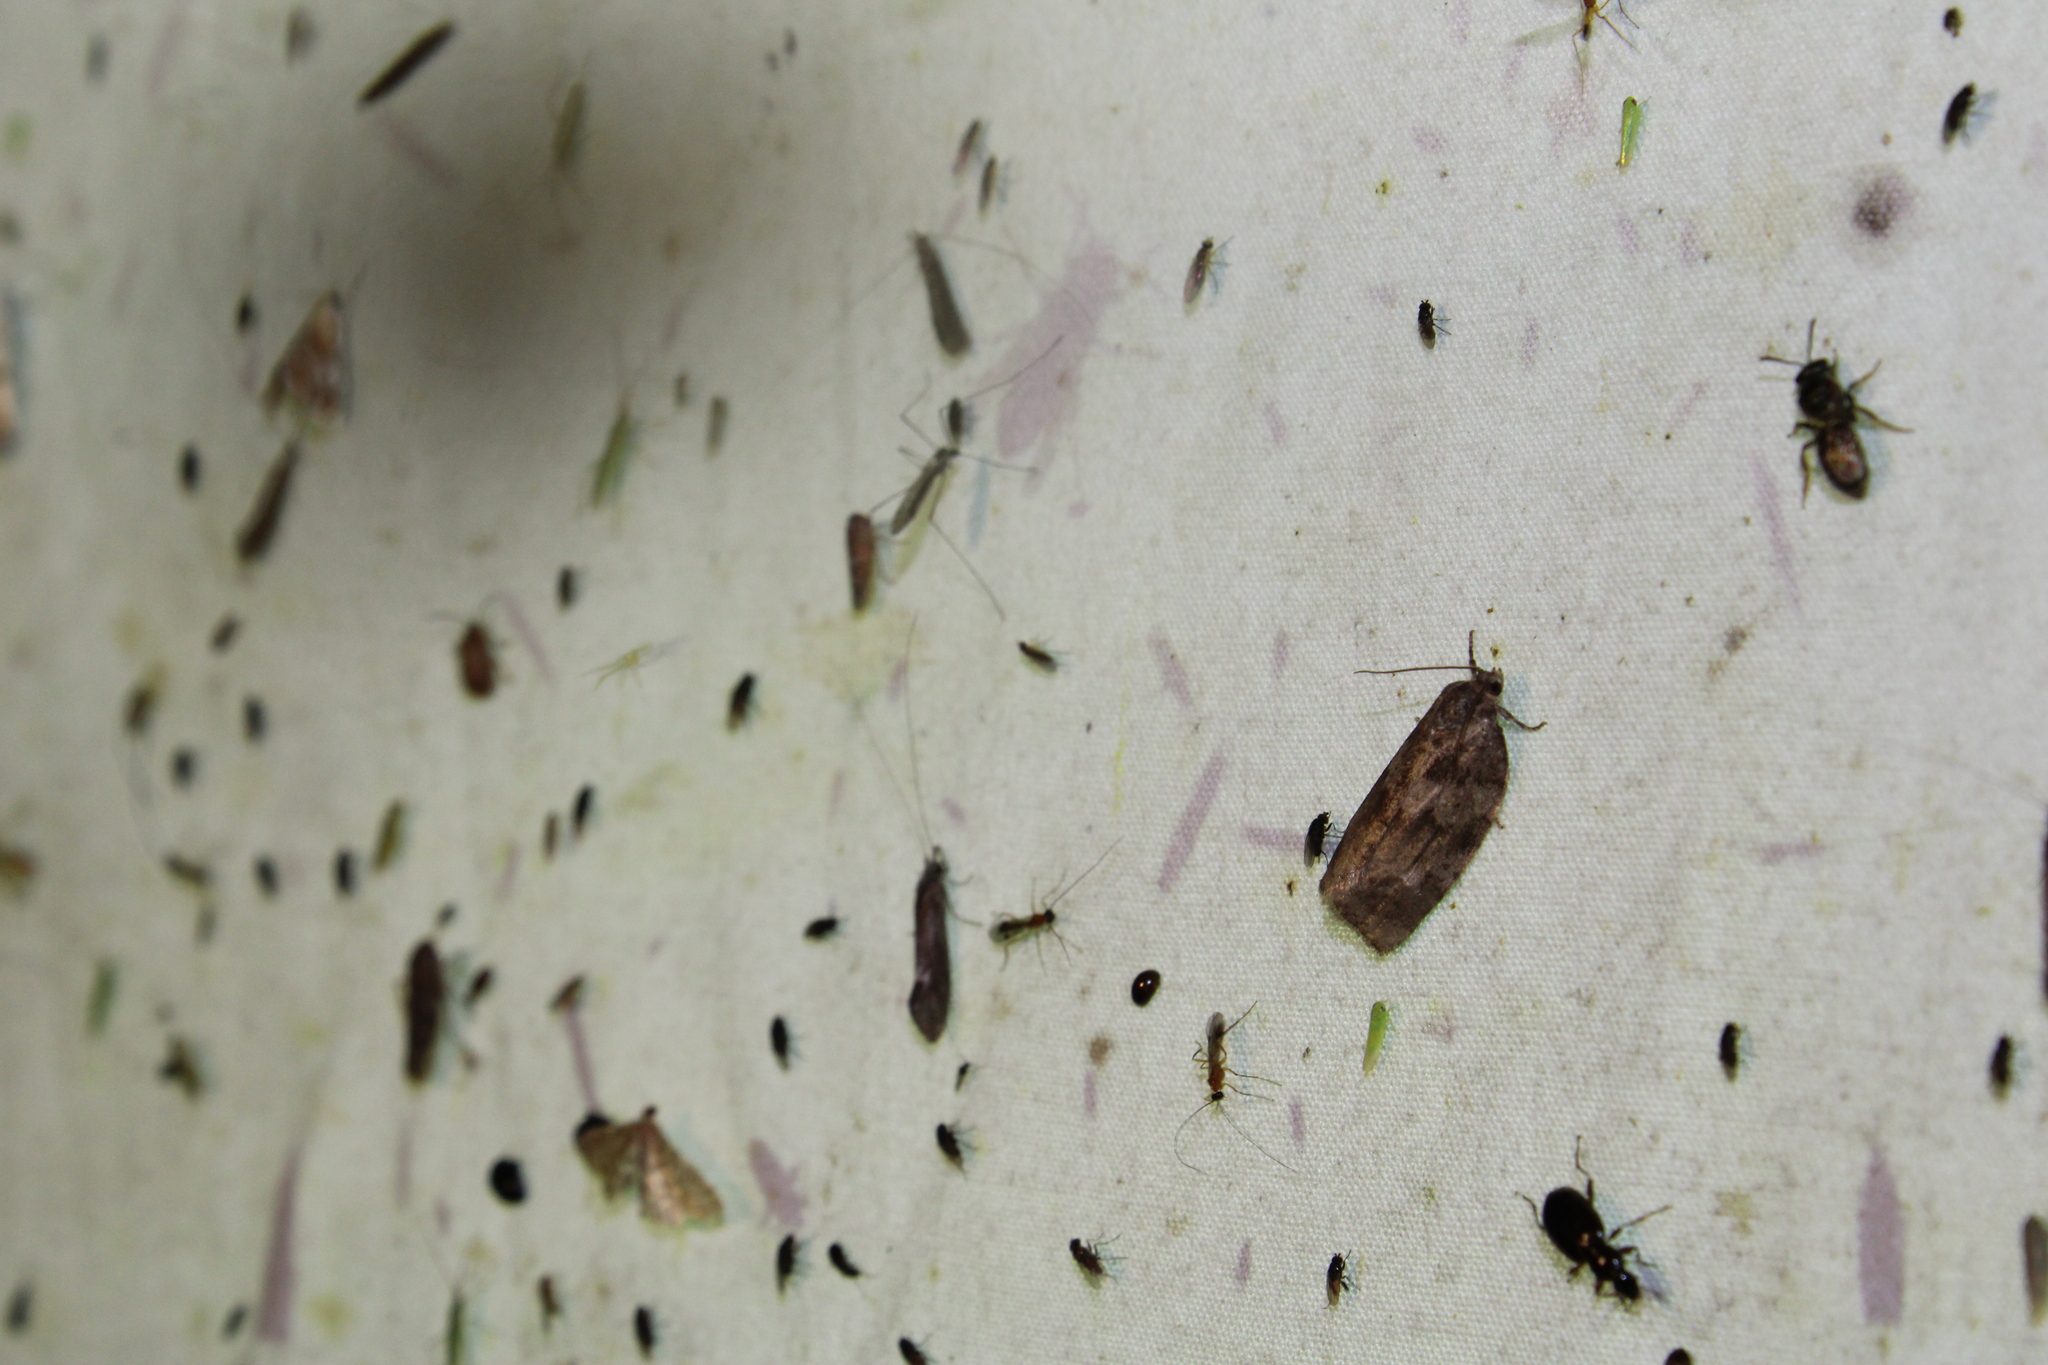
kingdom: Animalia
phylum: Arthropoda
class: Insecta
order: Lepidoptera
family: Tortricidae
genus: Choristoneura
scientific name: Choristoneura conflictana
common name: Large aspen tortrix
